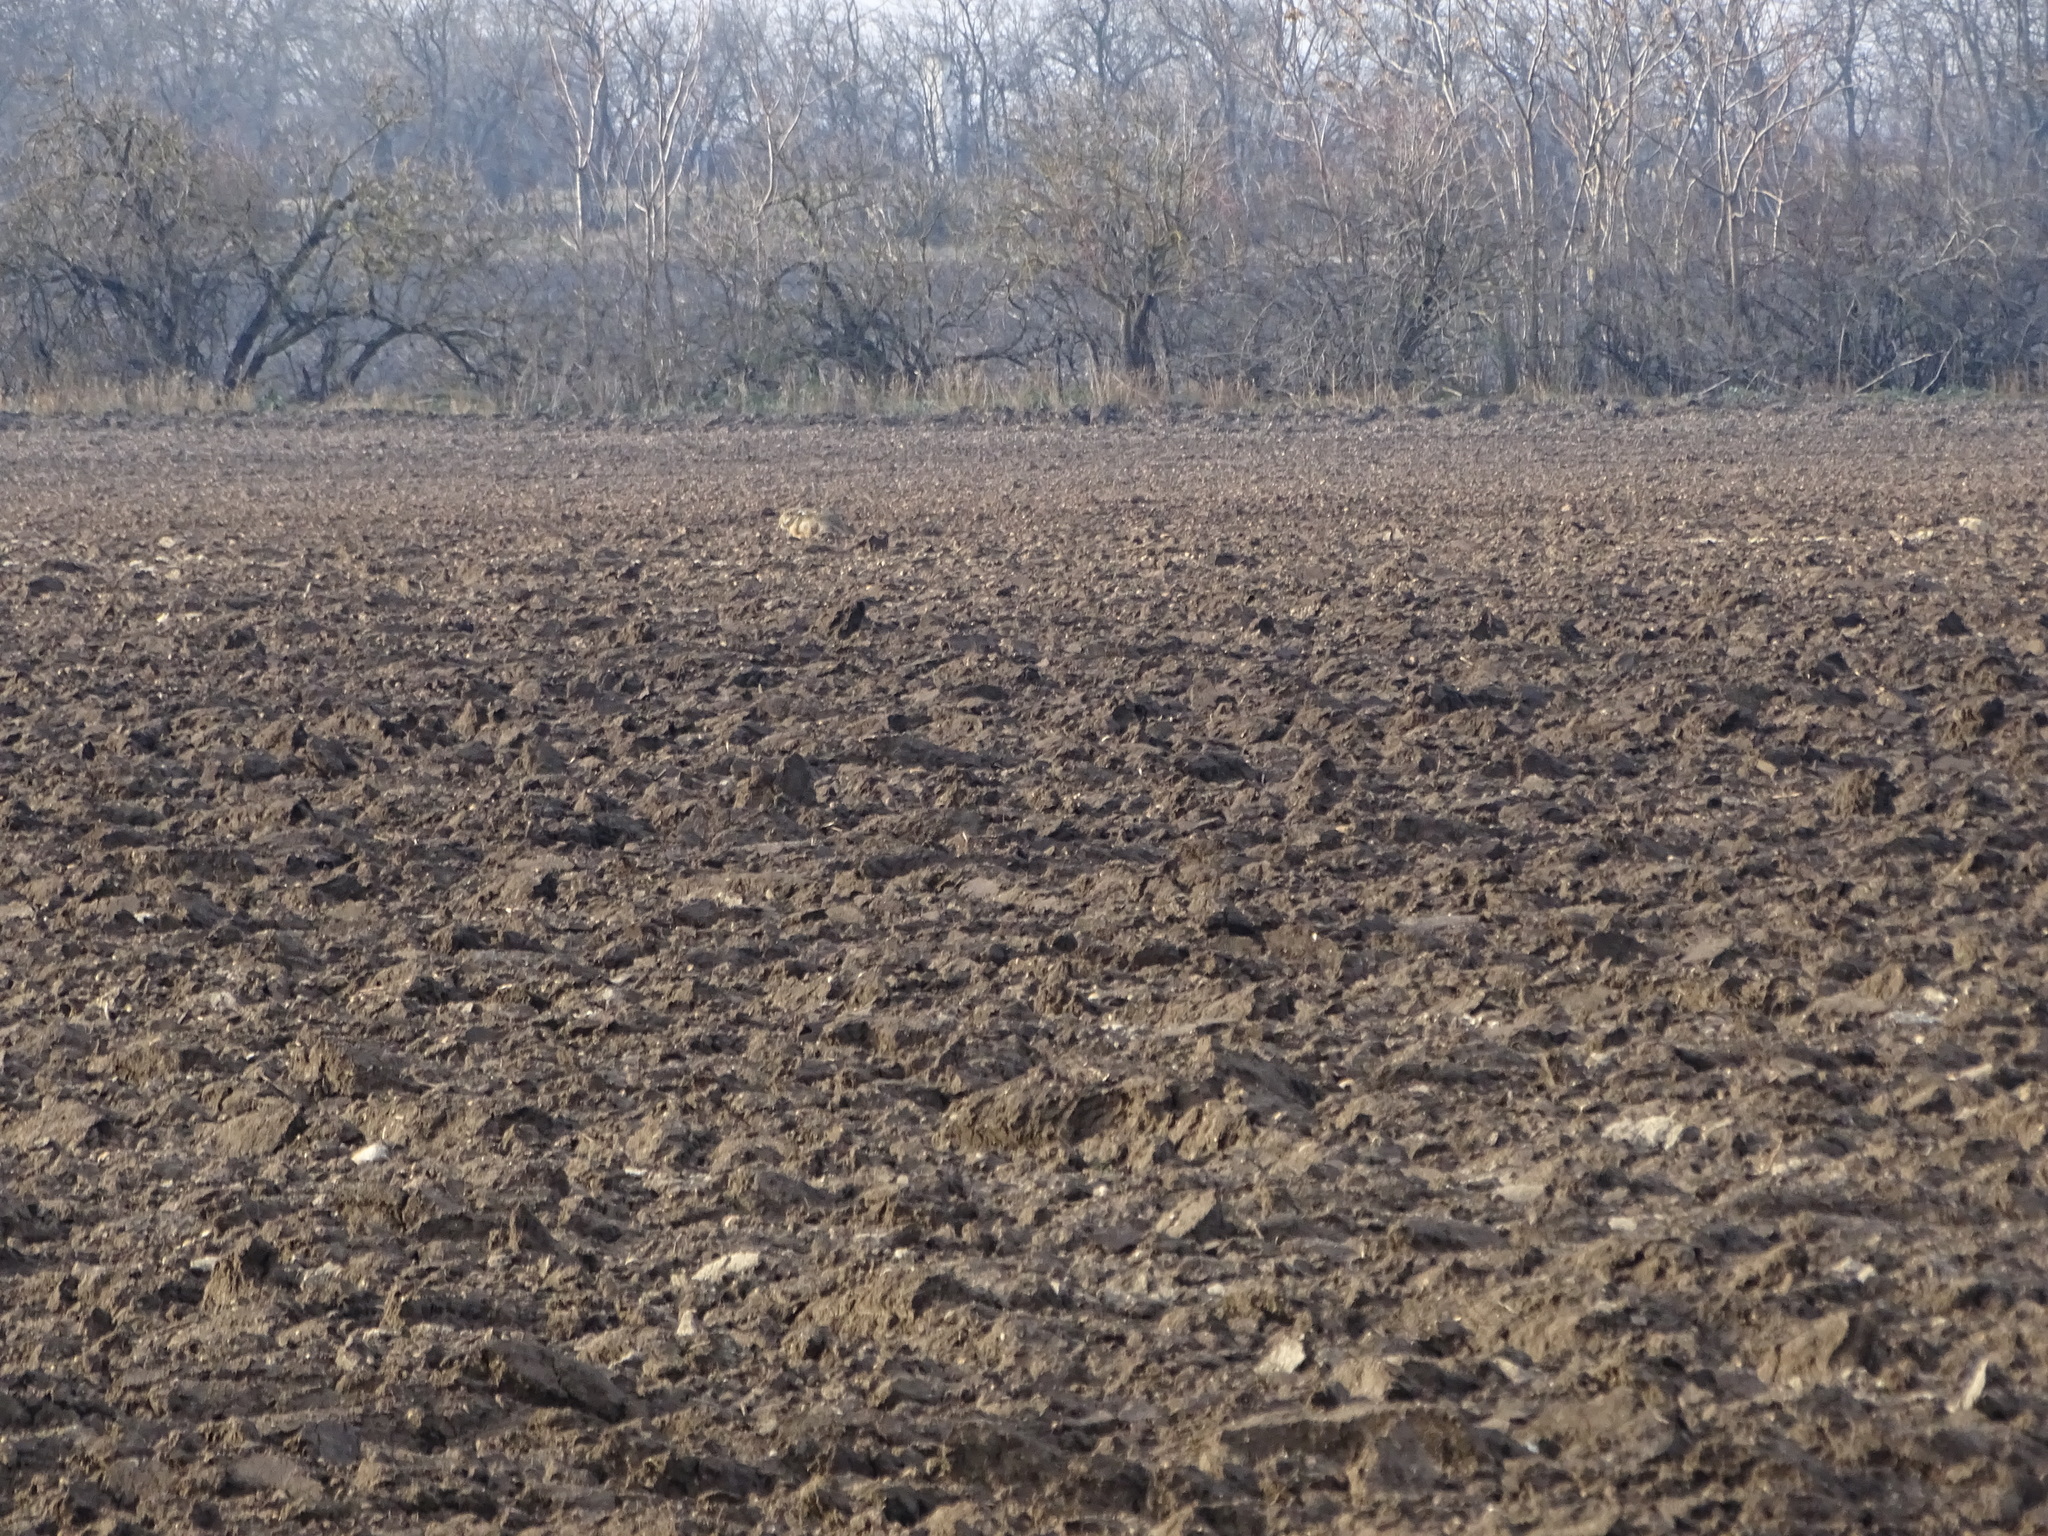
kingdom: Animalia
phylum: Chordata
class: Mammalia
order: Lagomorpha
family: Leporidae
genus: Lepus
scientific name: Lepus europaeus
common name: European hare
